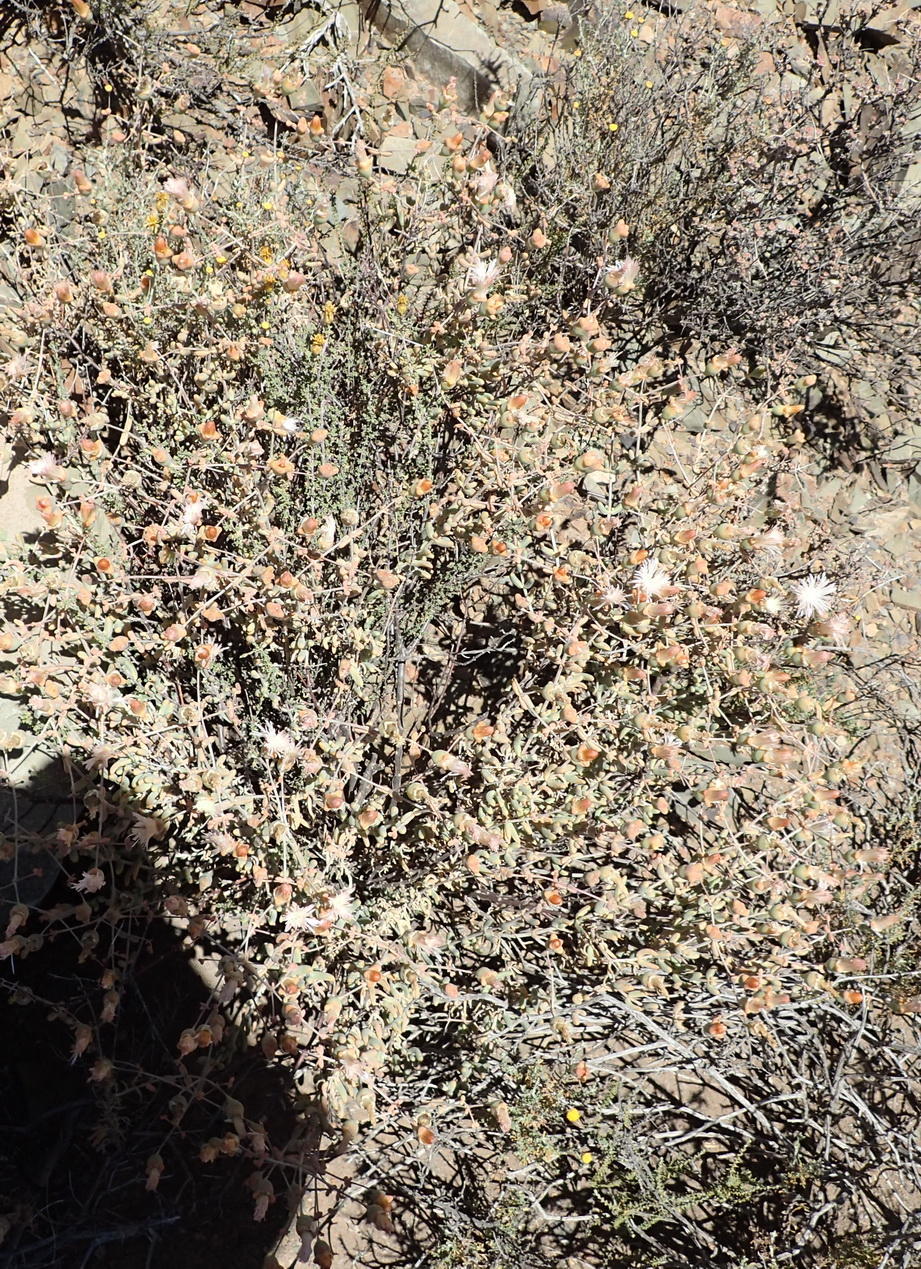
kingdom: Plantae
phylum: Tracheophyta
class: Magnoliopsida
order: Caryophyllales
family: Aizoaceae
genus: Mesembryanthemum
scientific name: Mesembryanthemum brevicarpum
